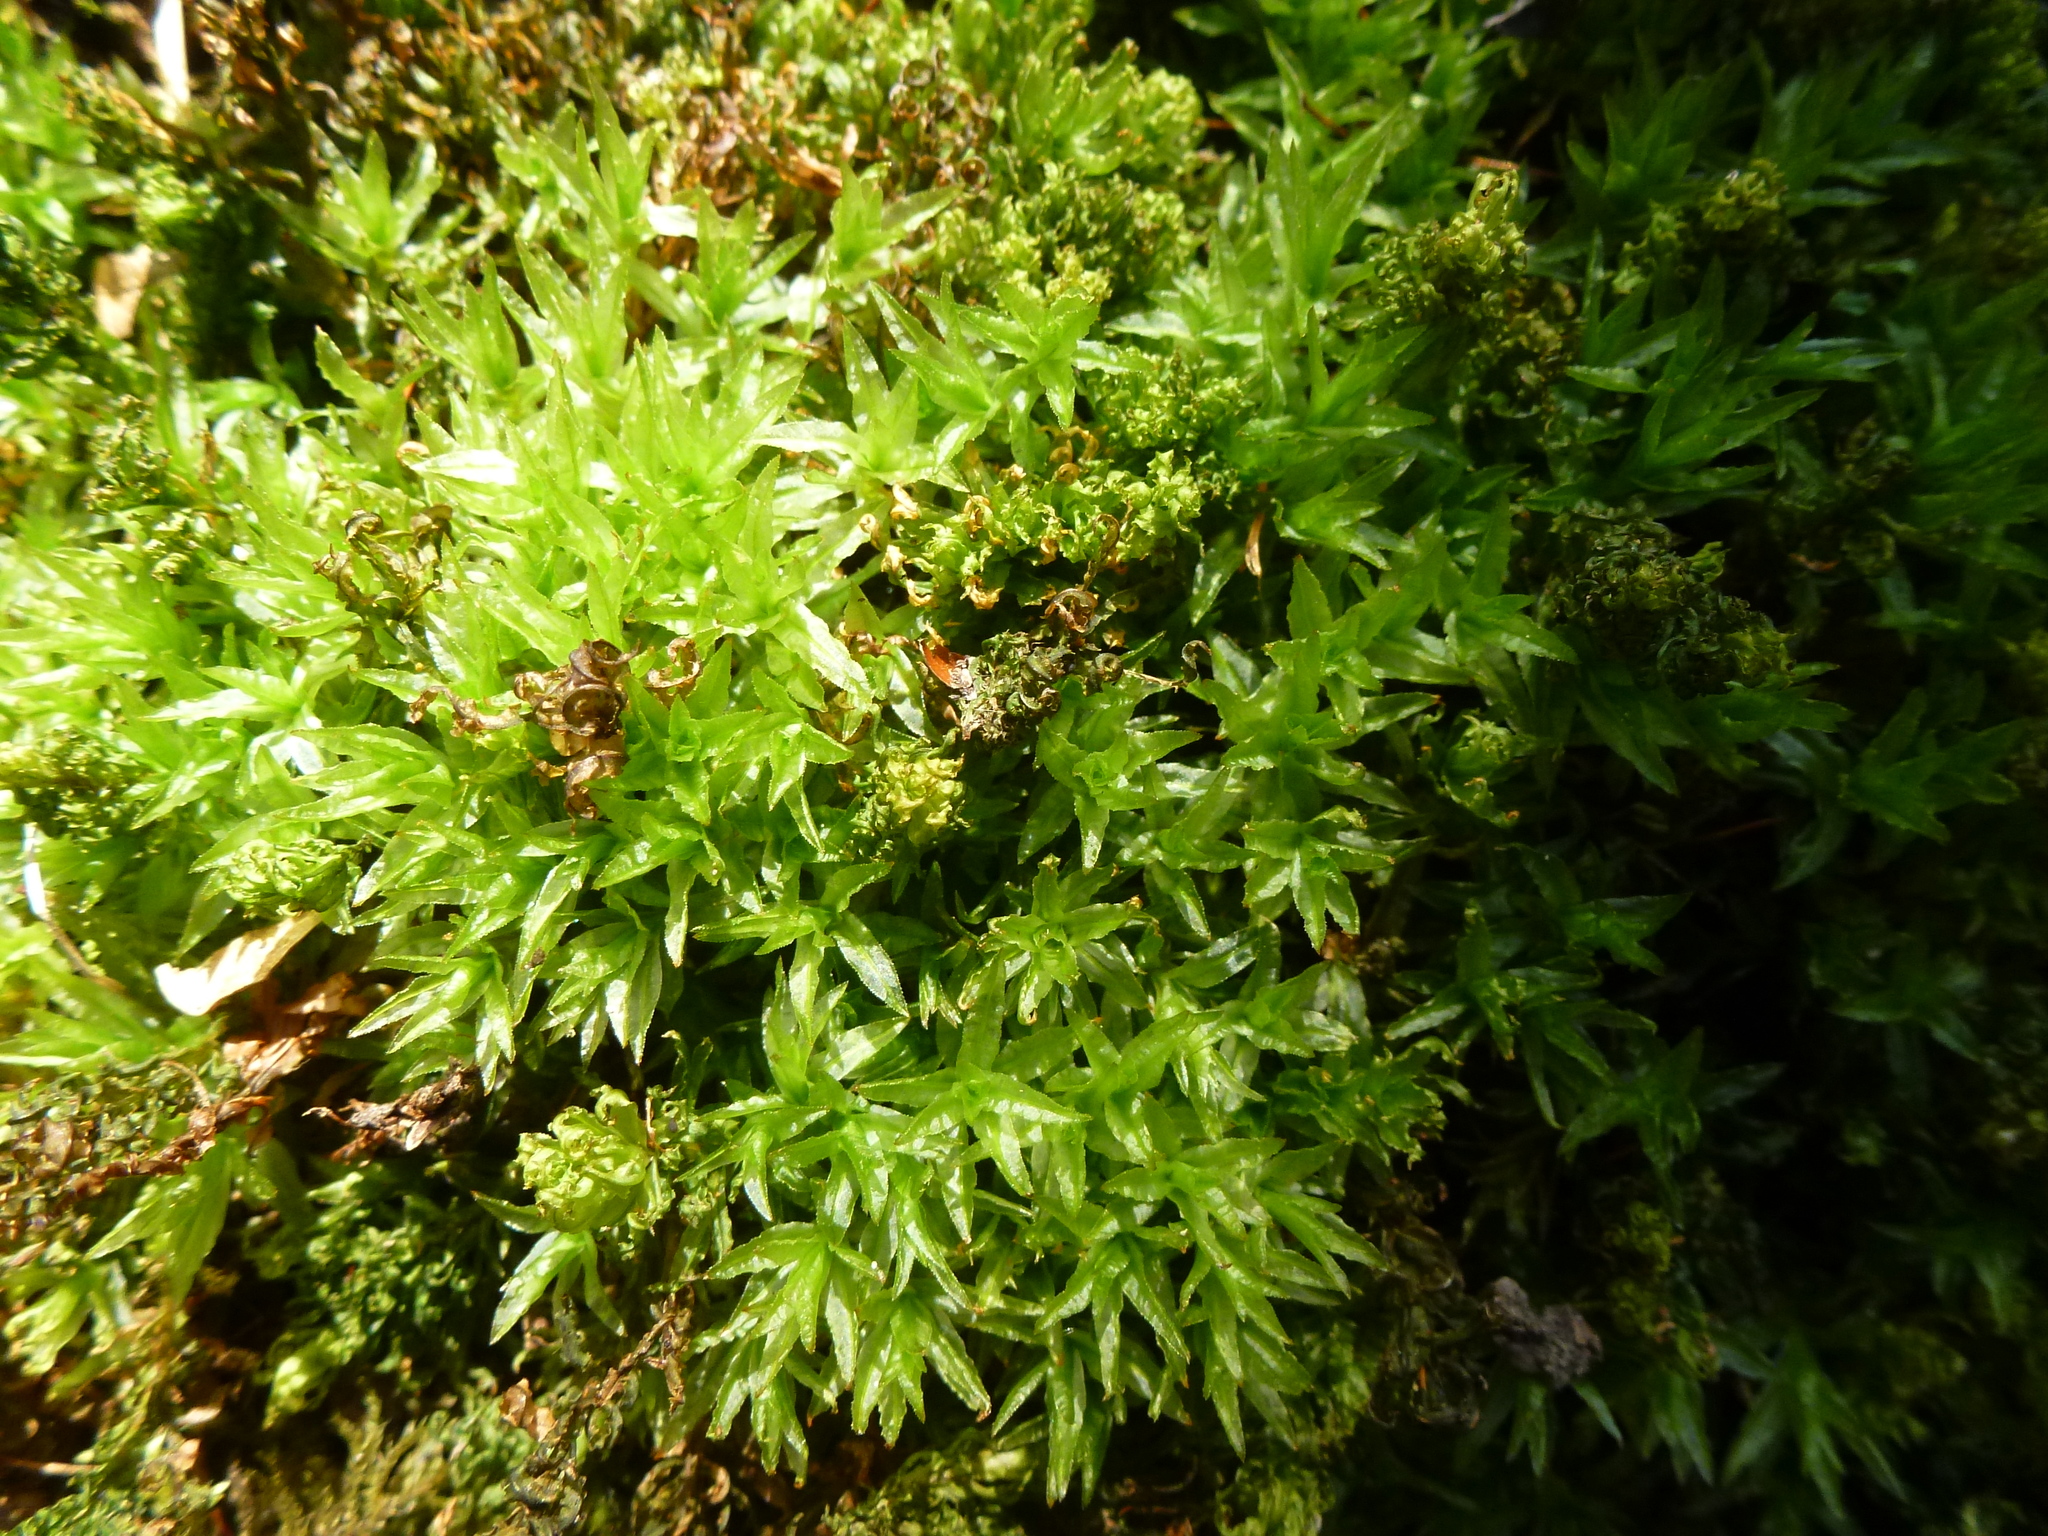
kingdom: Plantae
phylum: Bryophyta
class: Polytrichopsida
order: Polytrichales
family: Polytrichaceae
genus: Atrichum
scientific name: Atrichum undulatum
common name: Common smoothcap
